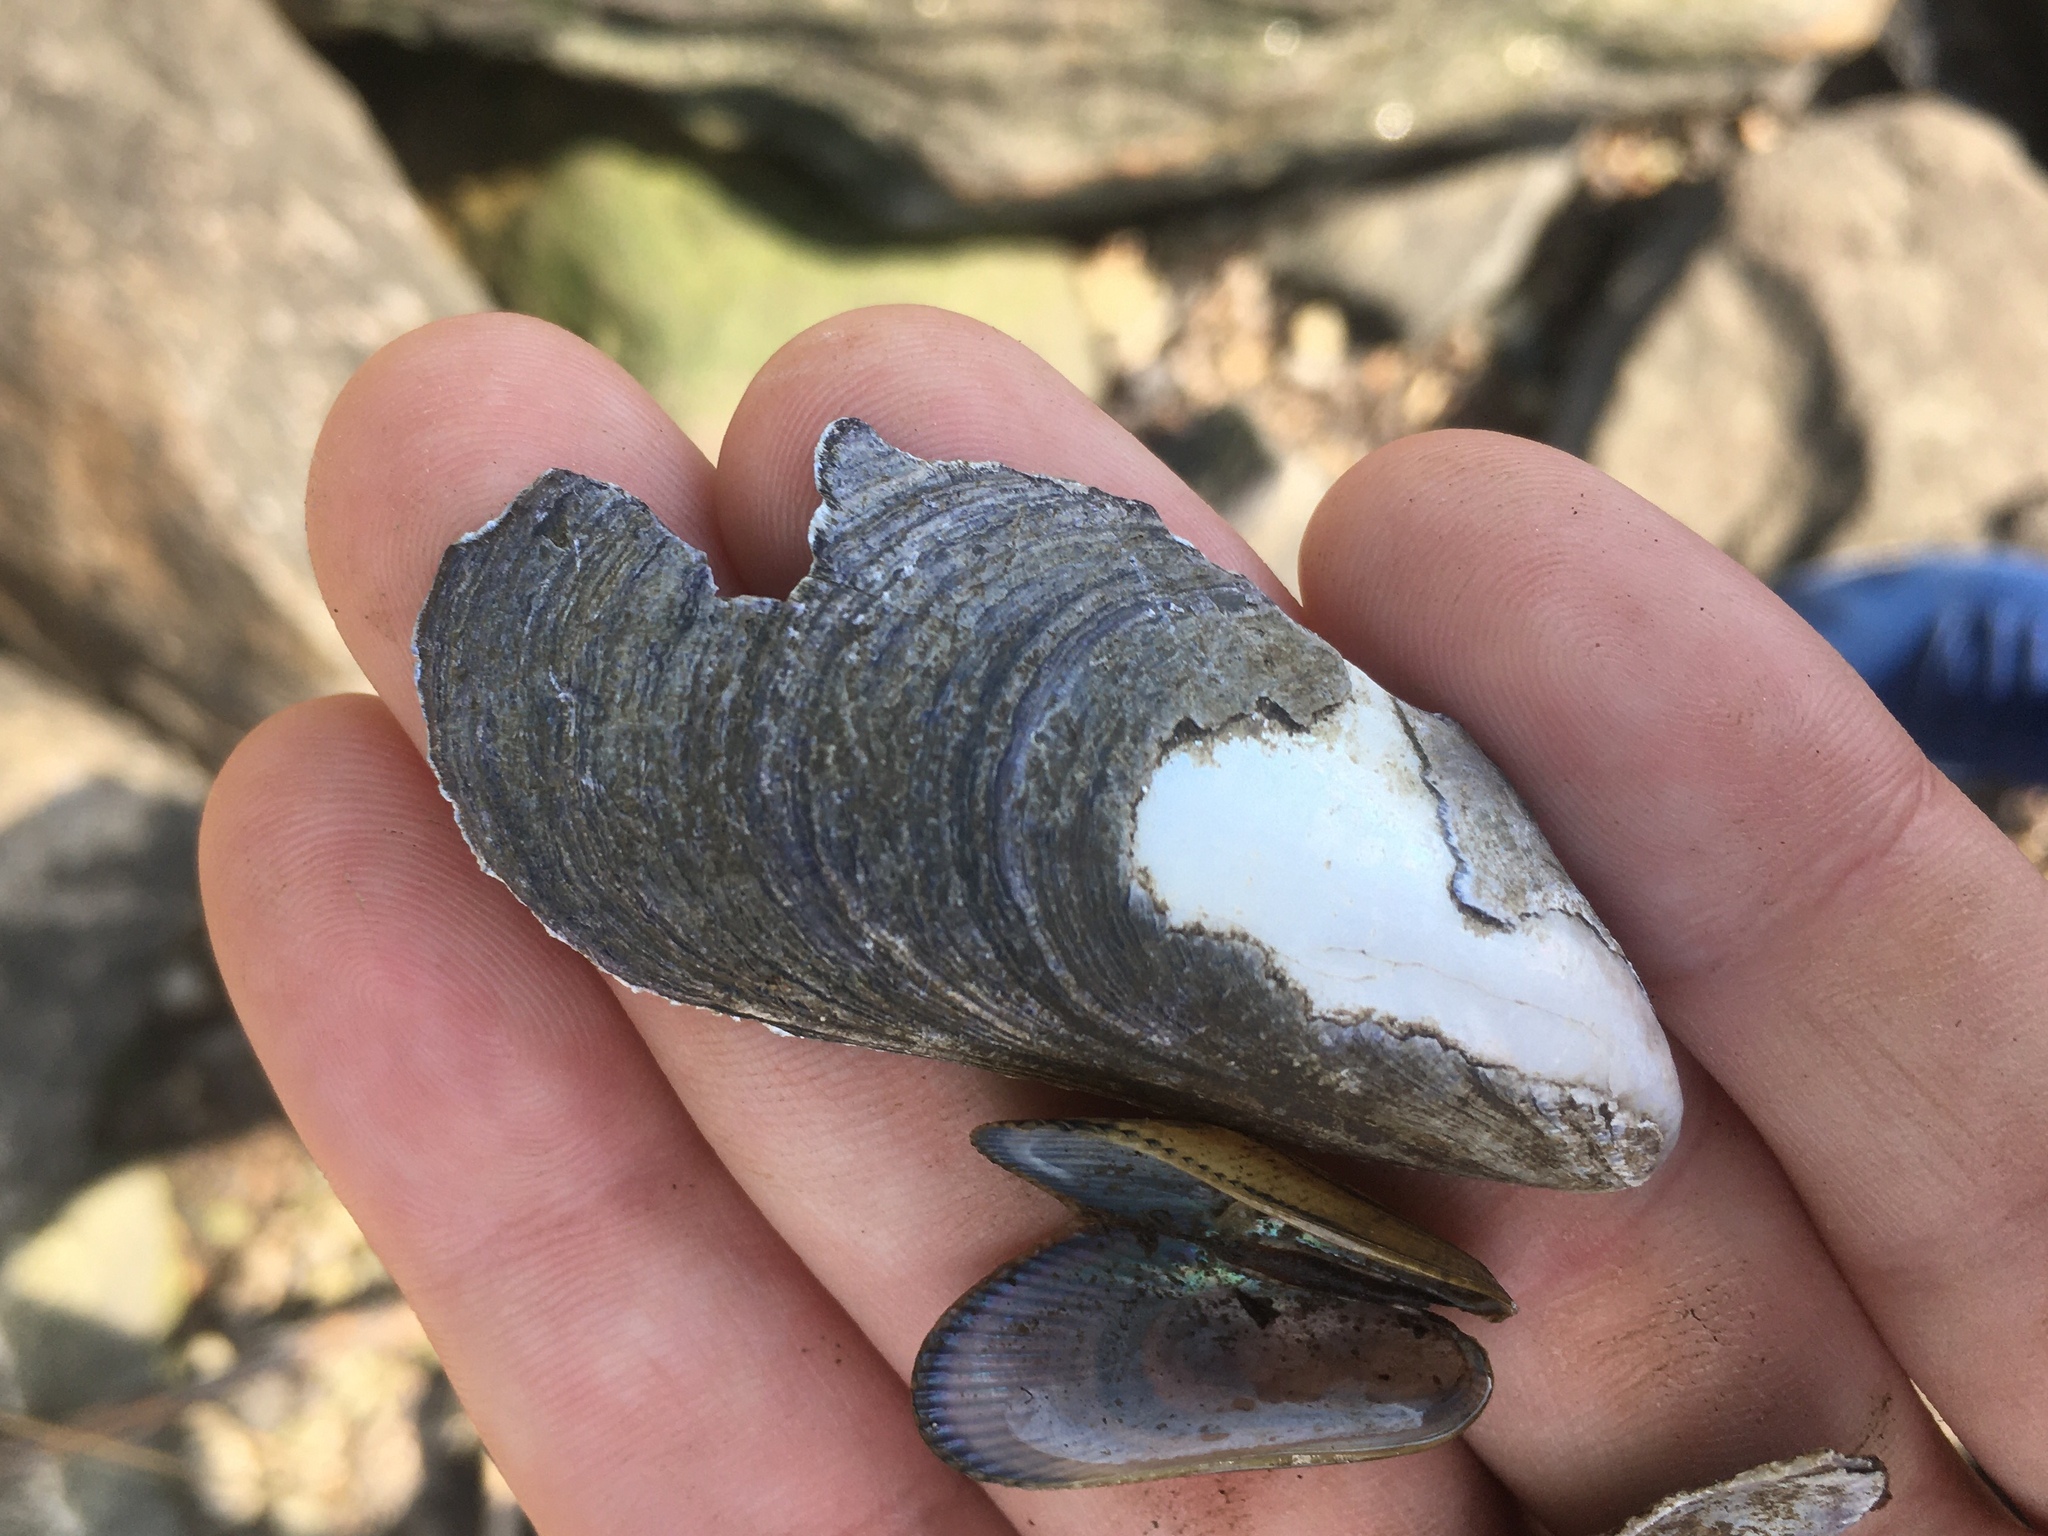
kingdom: Animalia
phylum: Mollusca
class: Bivalvia
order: Mytilida
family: Mytilidae
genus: Mytilus
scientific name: Mytilus edulis
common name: Blue mussel
